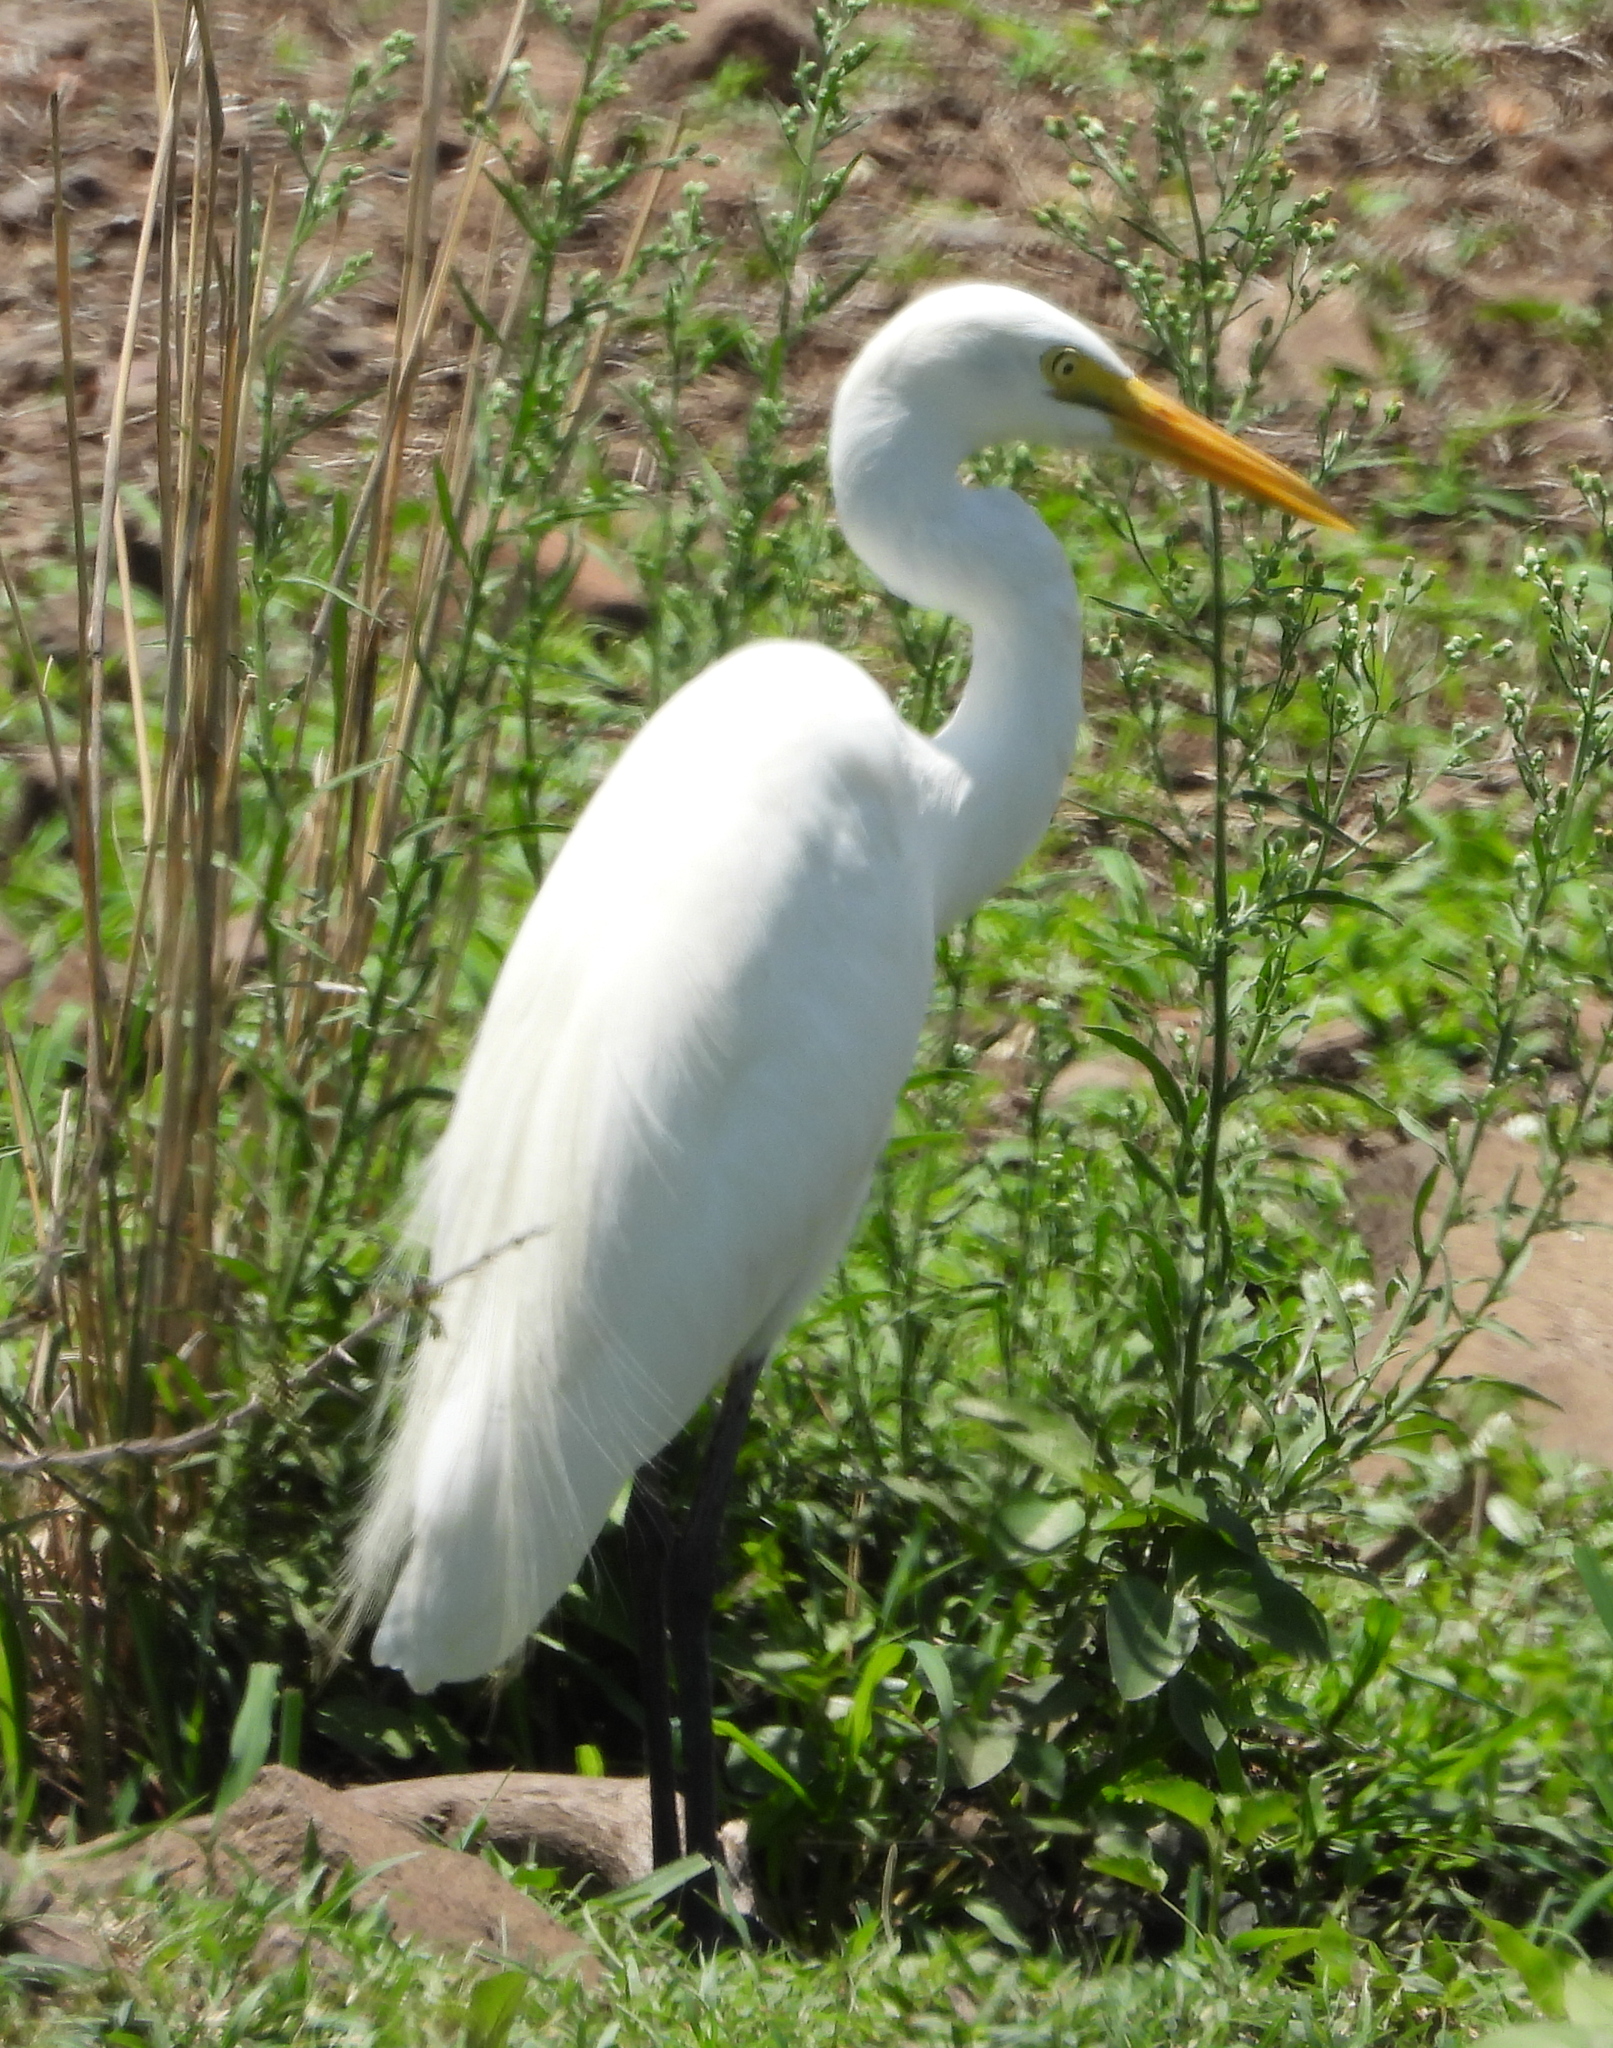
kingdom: Animalia
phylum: Chordata
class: Aves
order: Pelecaniformes
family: Ardeidae
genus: Egretta
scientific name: Egretta intermedia
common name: Intermediate egret
